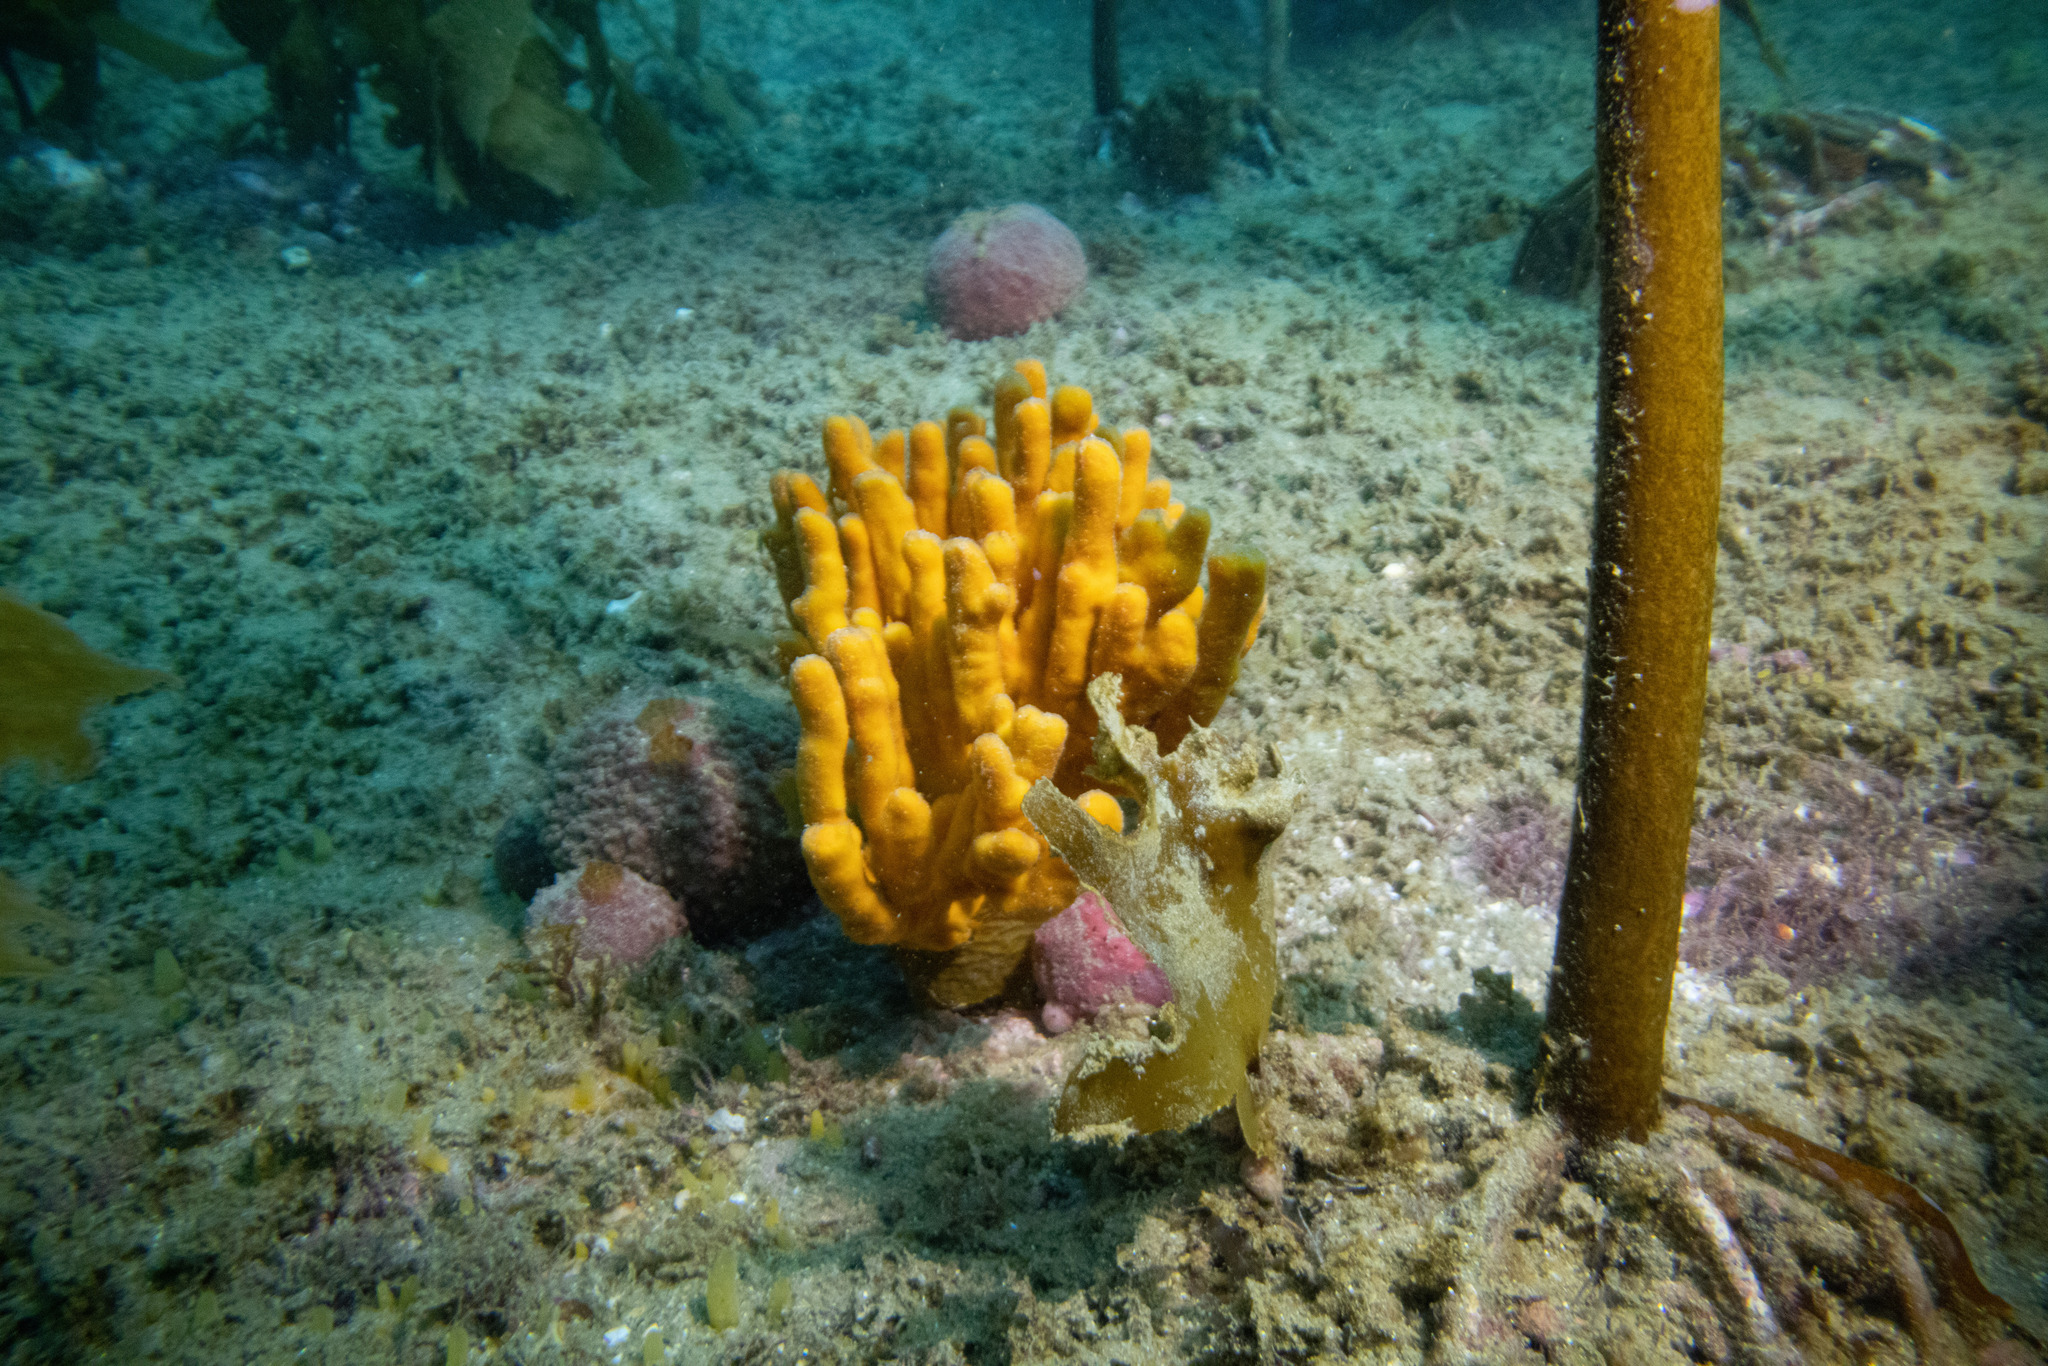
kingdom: Animalia
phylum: Porifera
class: Demospongiae
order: Axinellida
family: Raspailiidae
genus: Raspailia
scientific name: Raspailia topsenti
